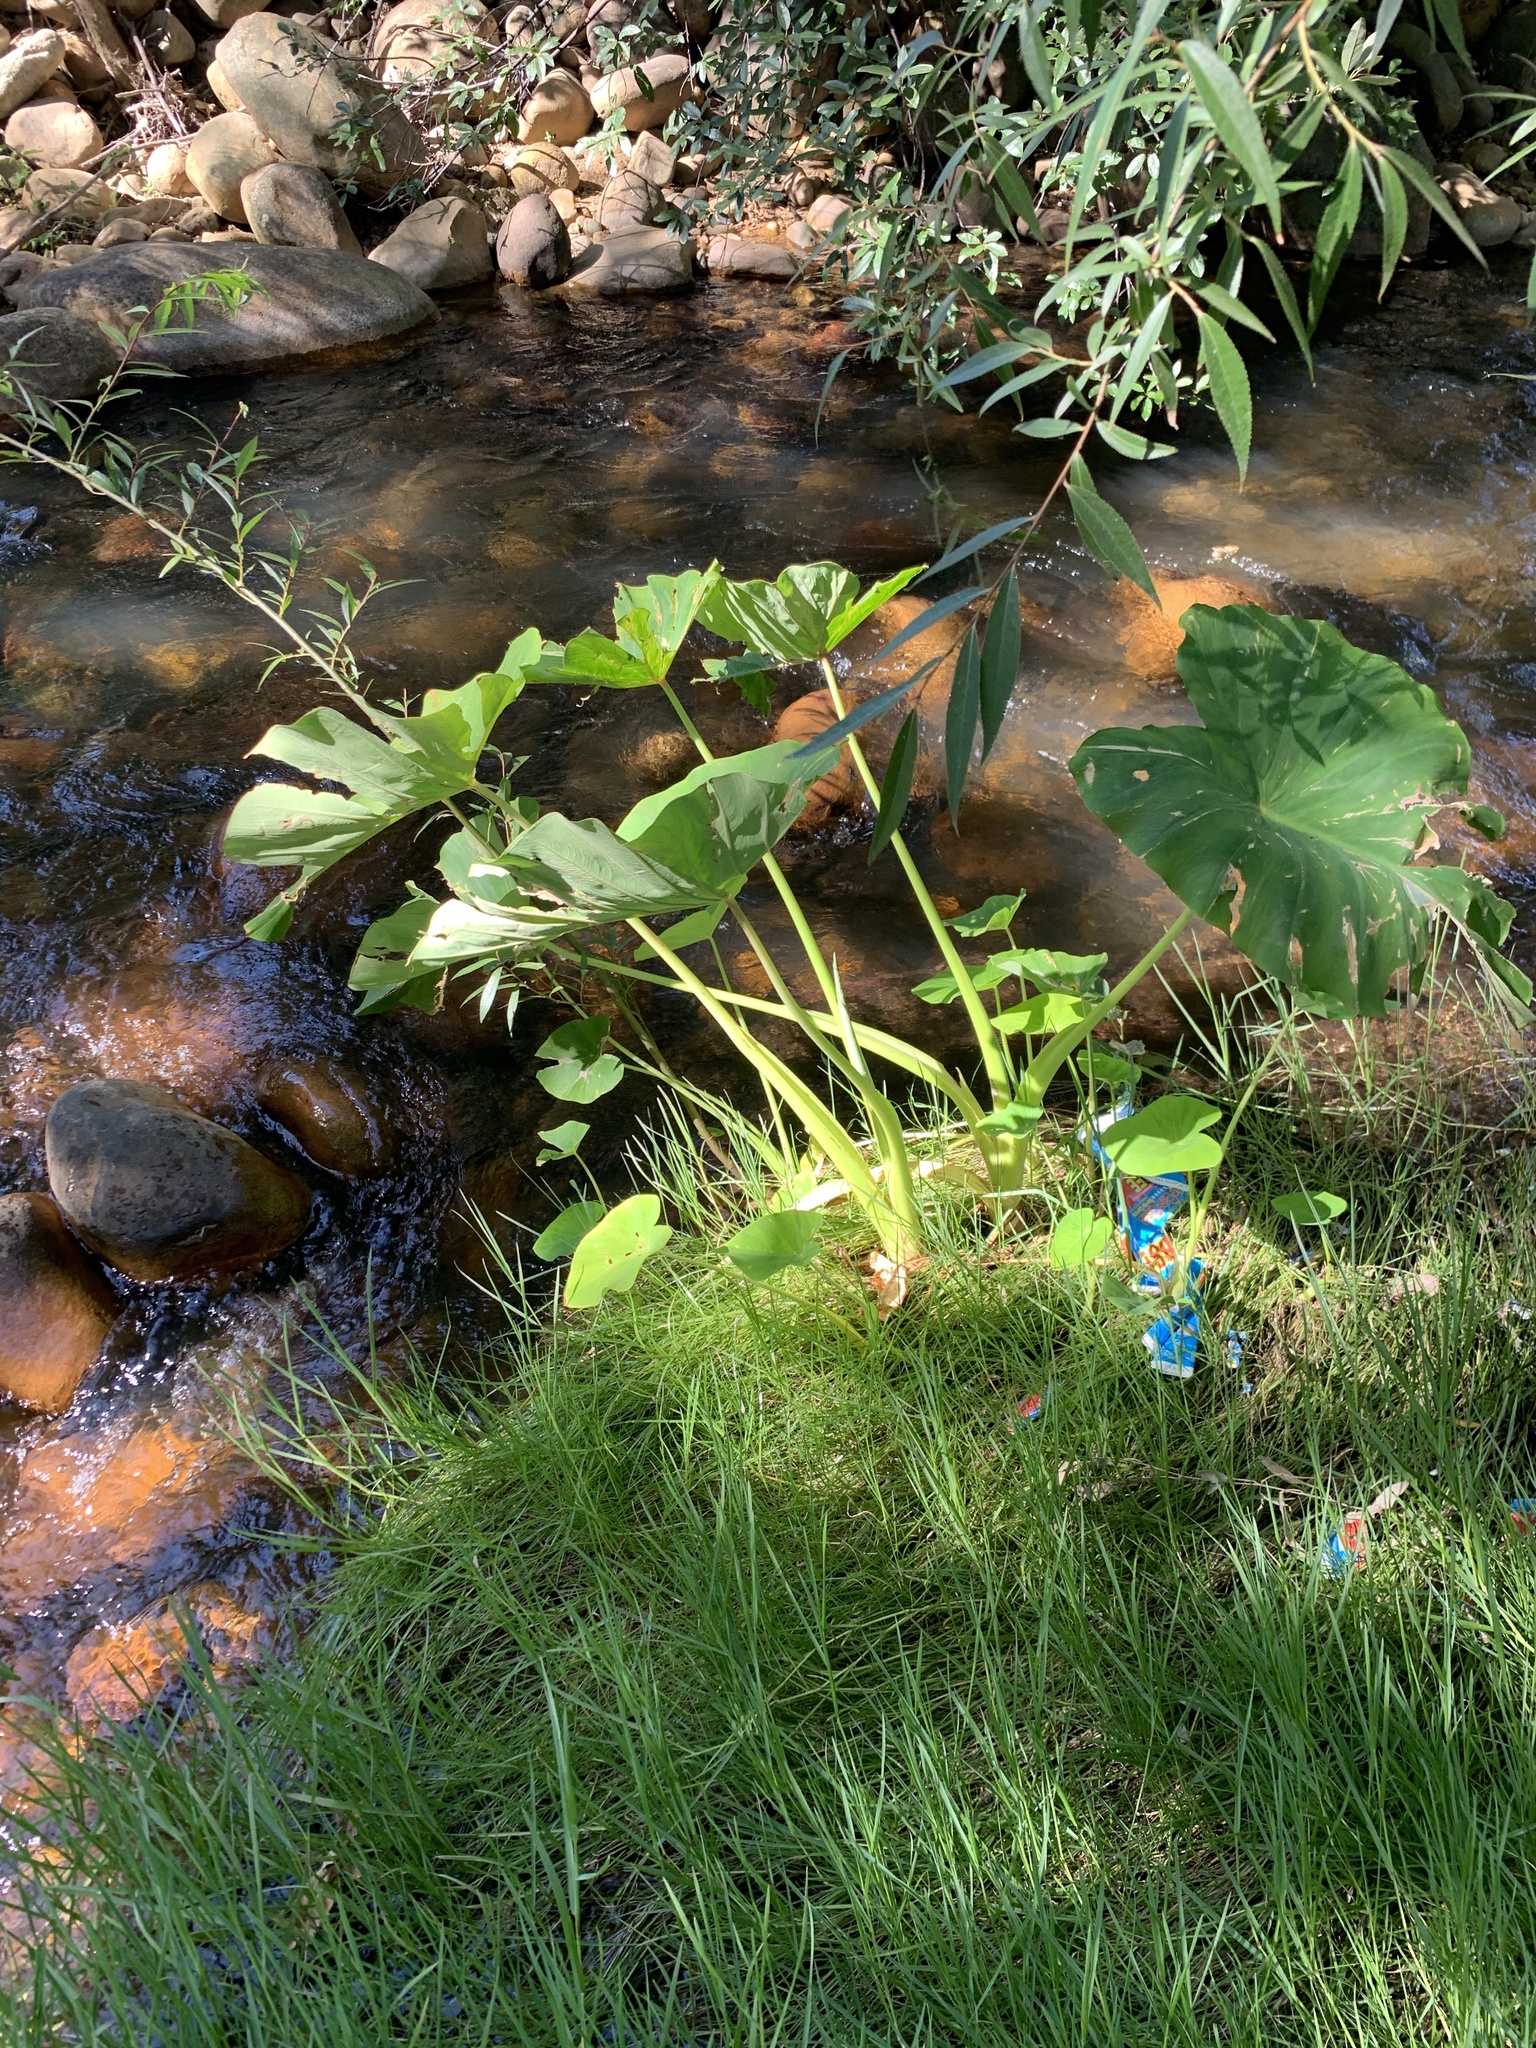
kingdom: Plantae
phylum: Tracheophyta
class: Liliopsida
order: Alismatales
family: Araceae
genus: Colocasia
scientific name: Colocasia esculenta
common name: Taro
